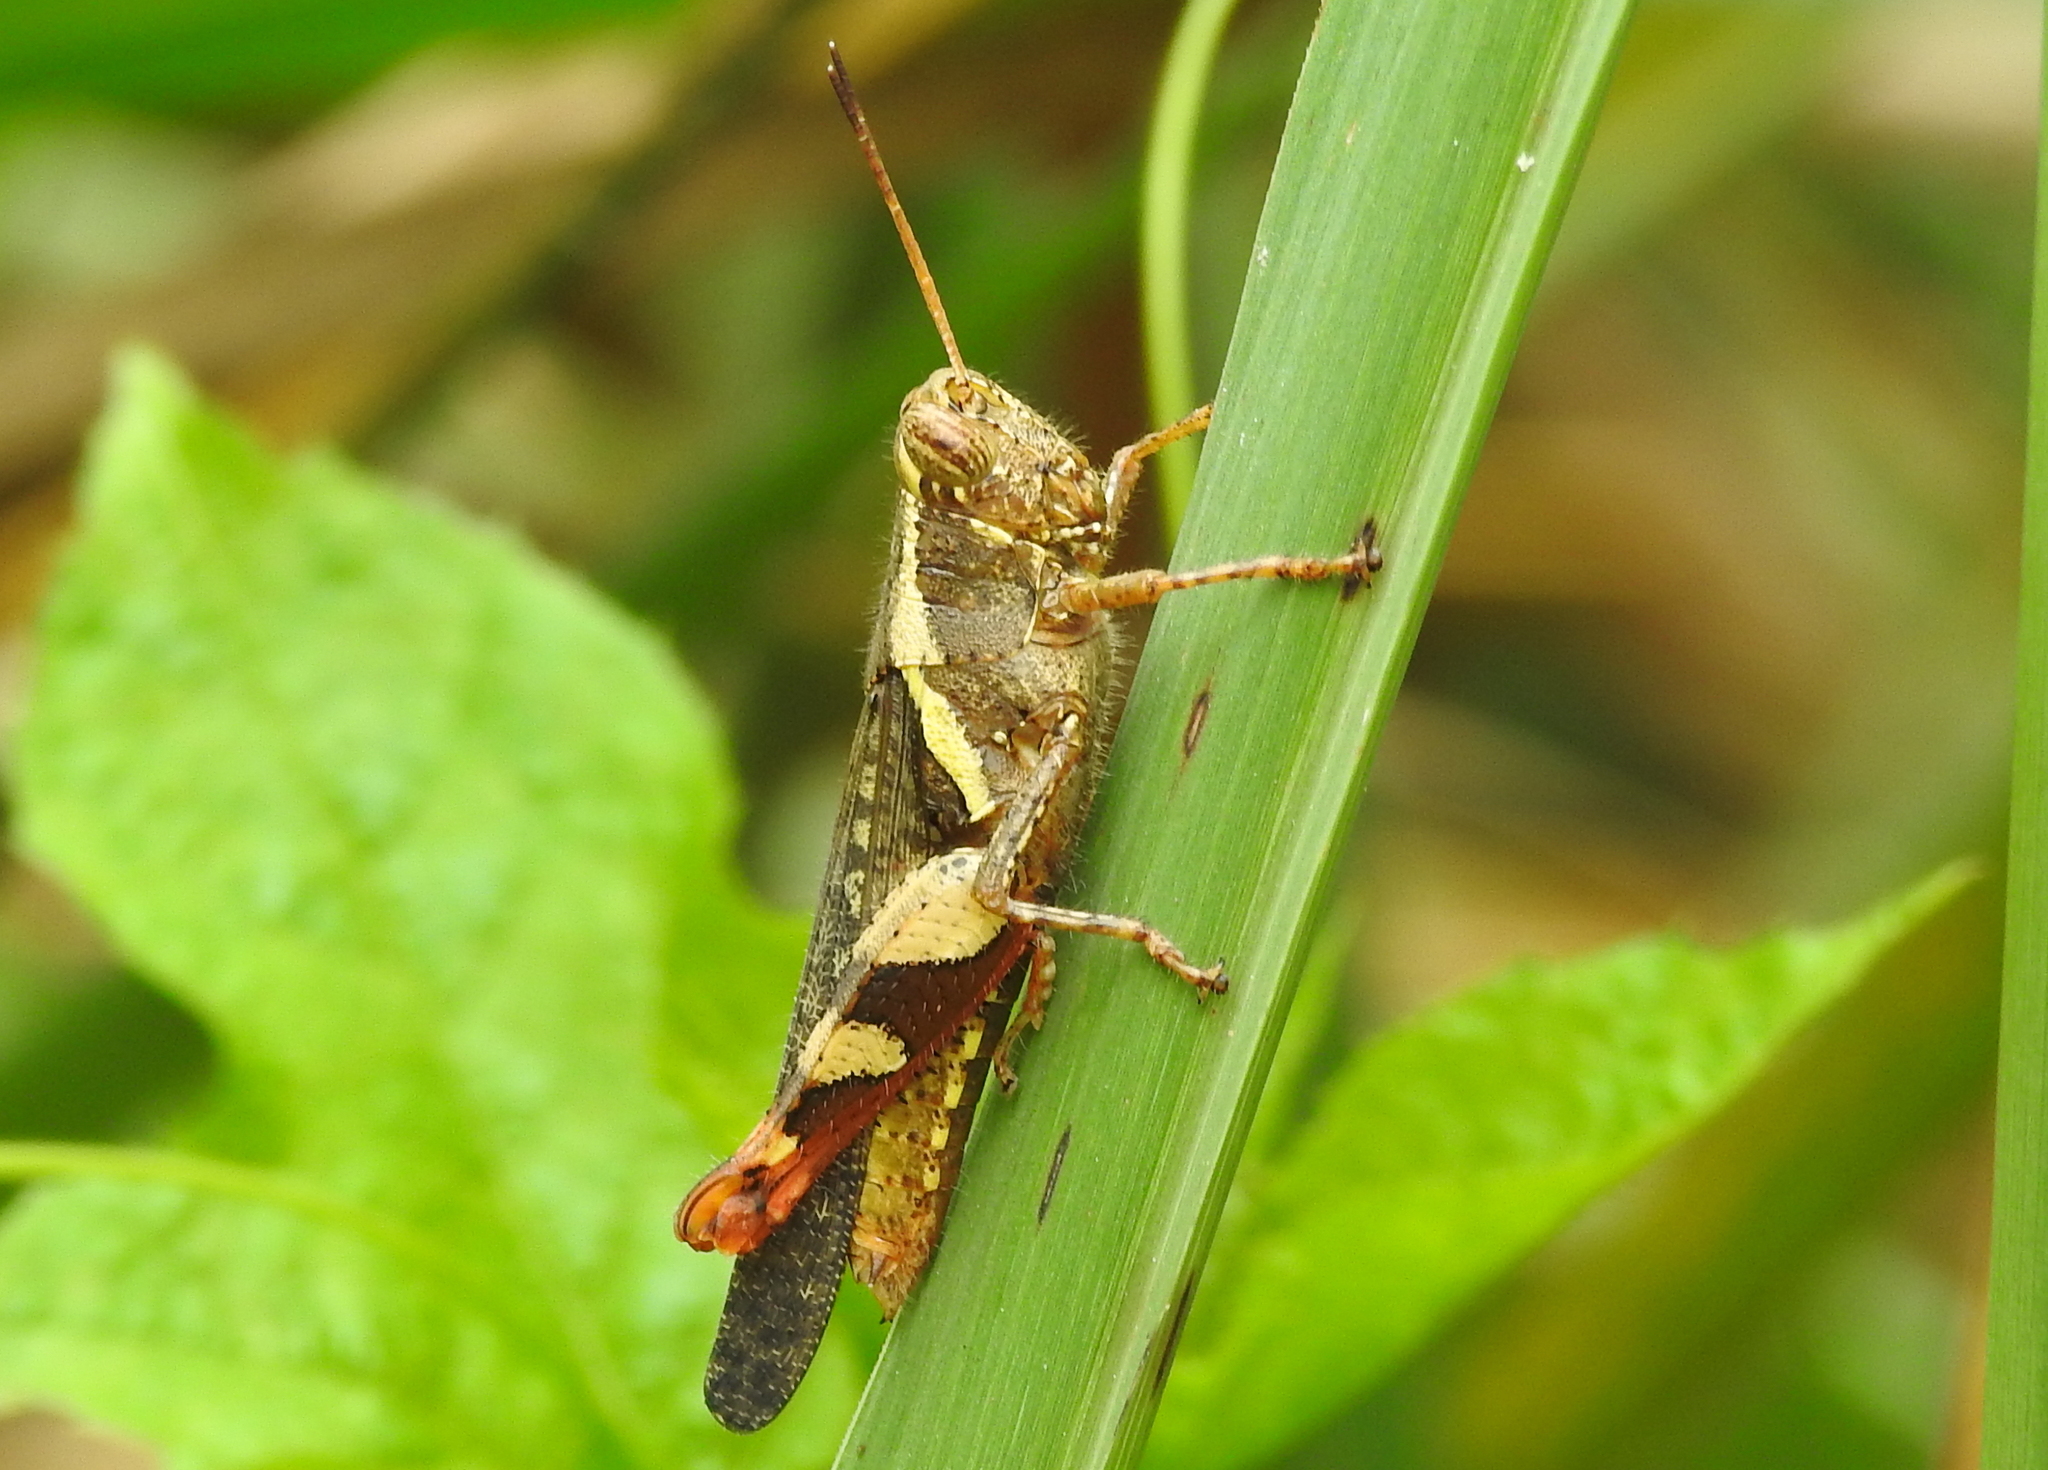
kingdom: Animalia
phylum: Arthropoda
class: Insecta
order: Orthoptera
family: Acrididae
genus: Xenocatantops
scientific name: Xenocatantops humile
